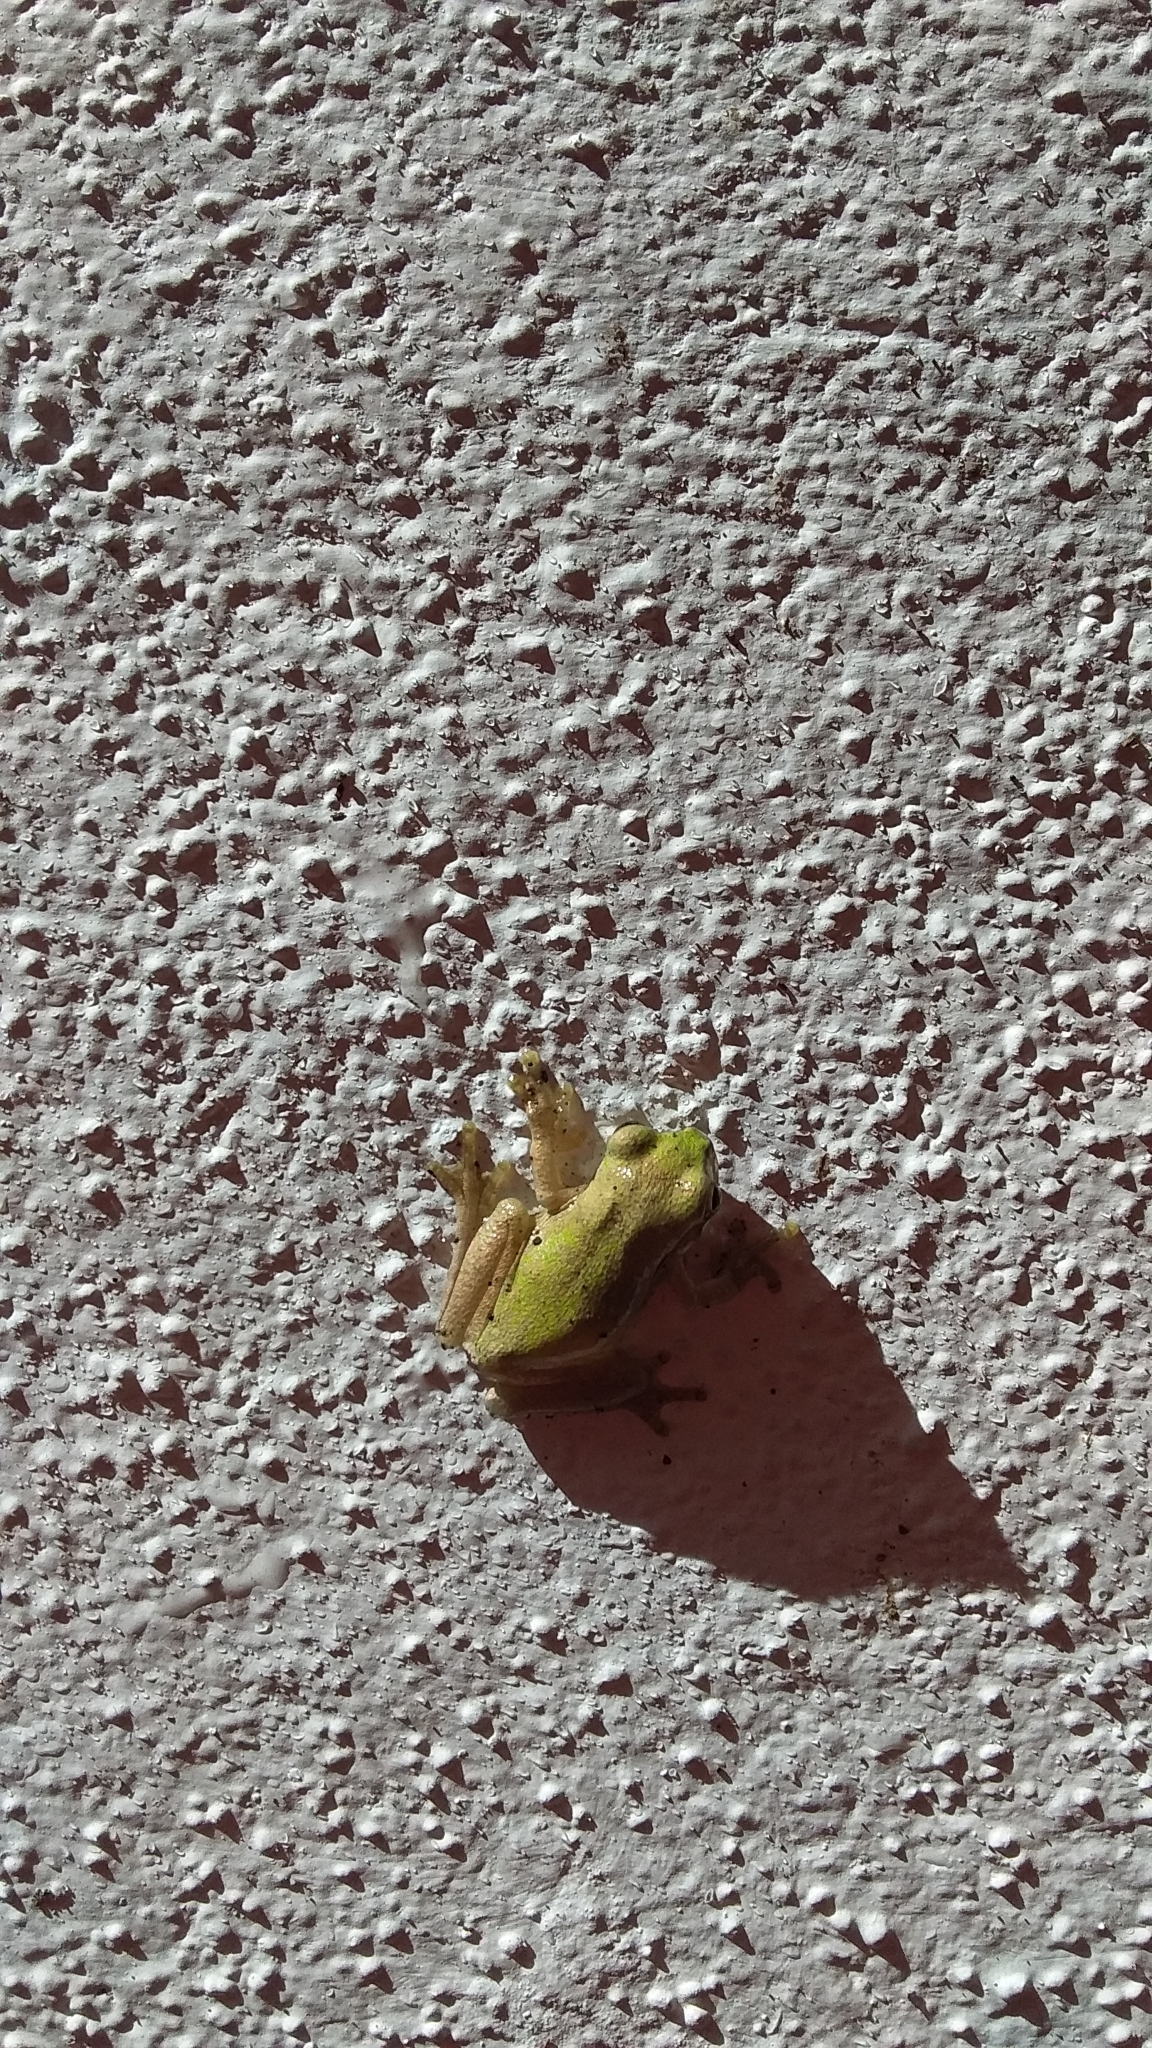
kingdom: Animalia
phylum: Chordata
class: Amphibia
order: Anura
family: Hylidae
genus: Smilisca
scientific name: Smilisca baudinii
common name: Mexican smilisca
